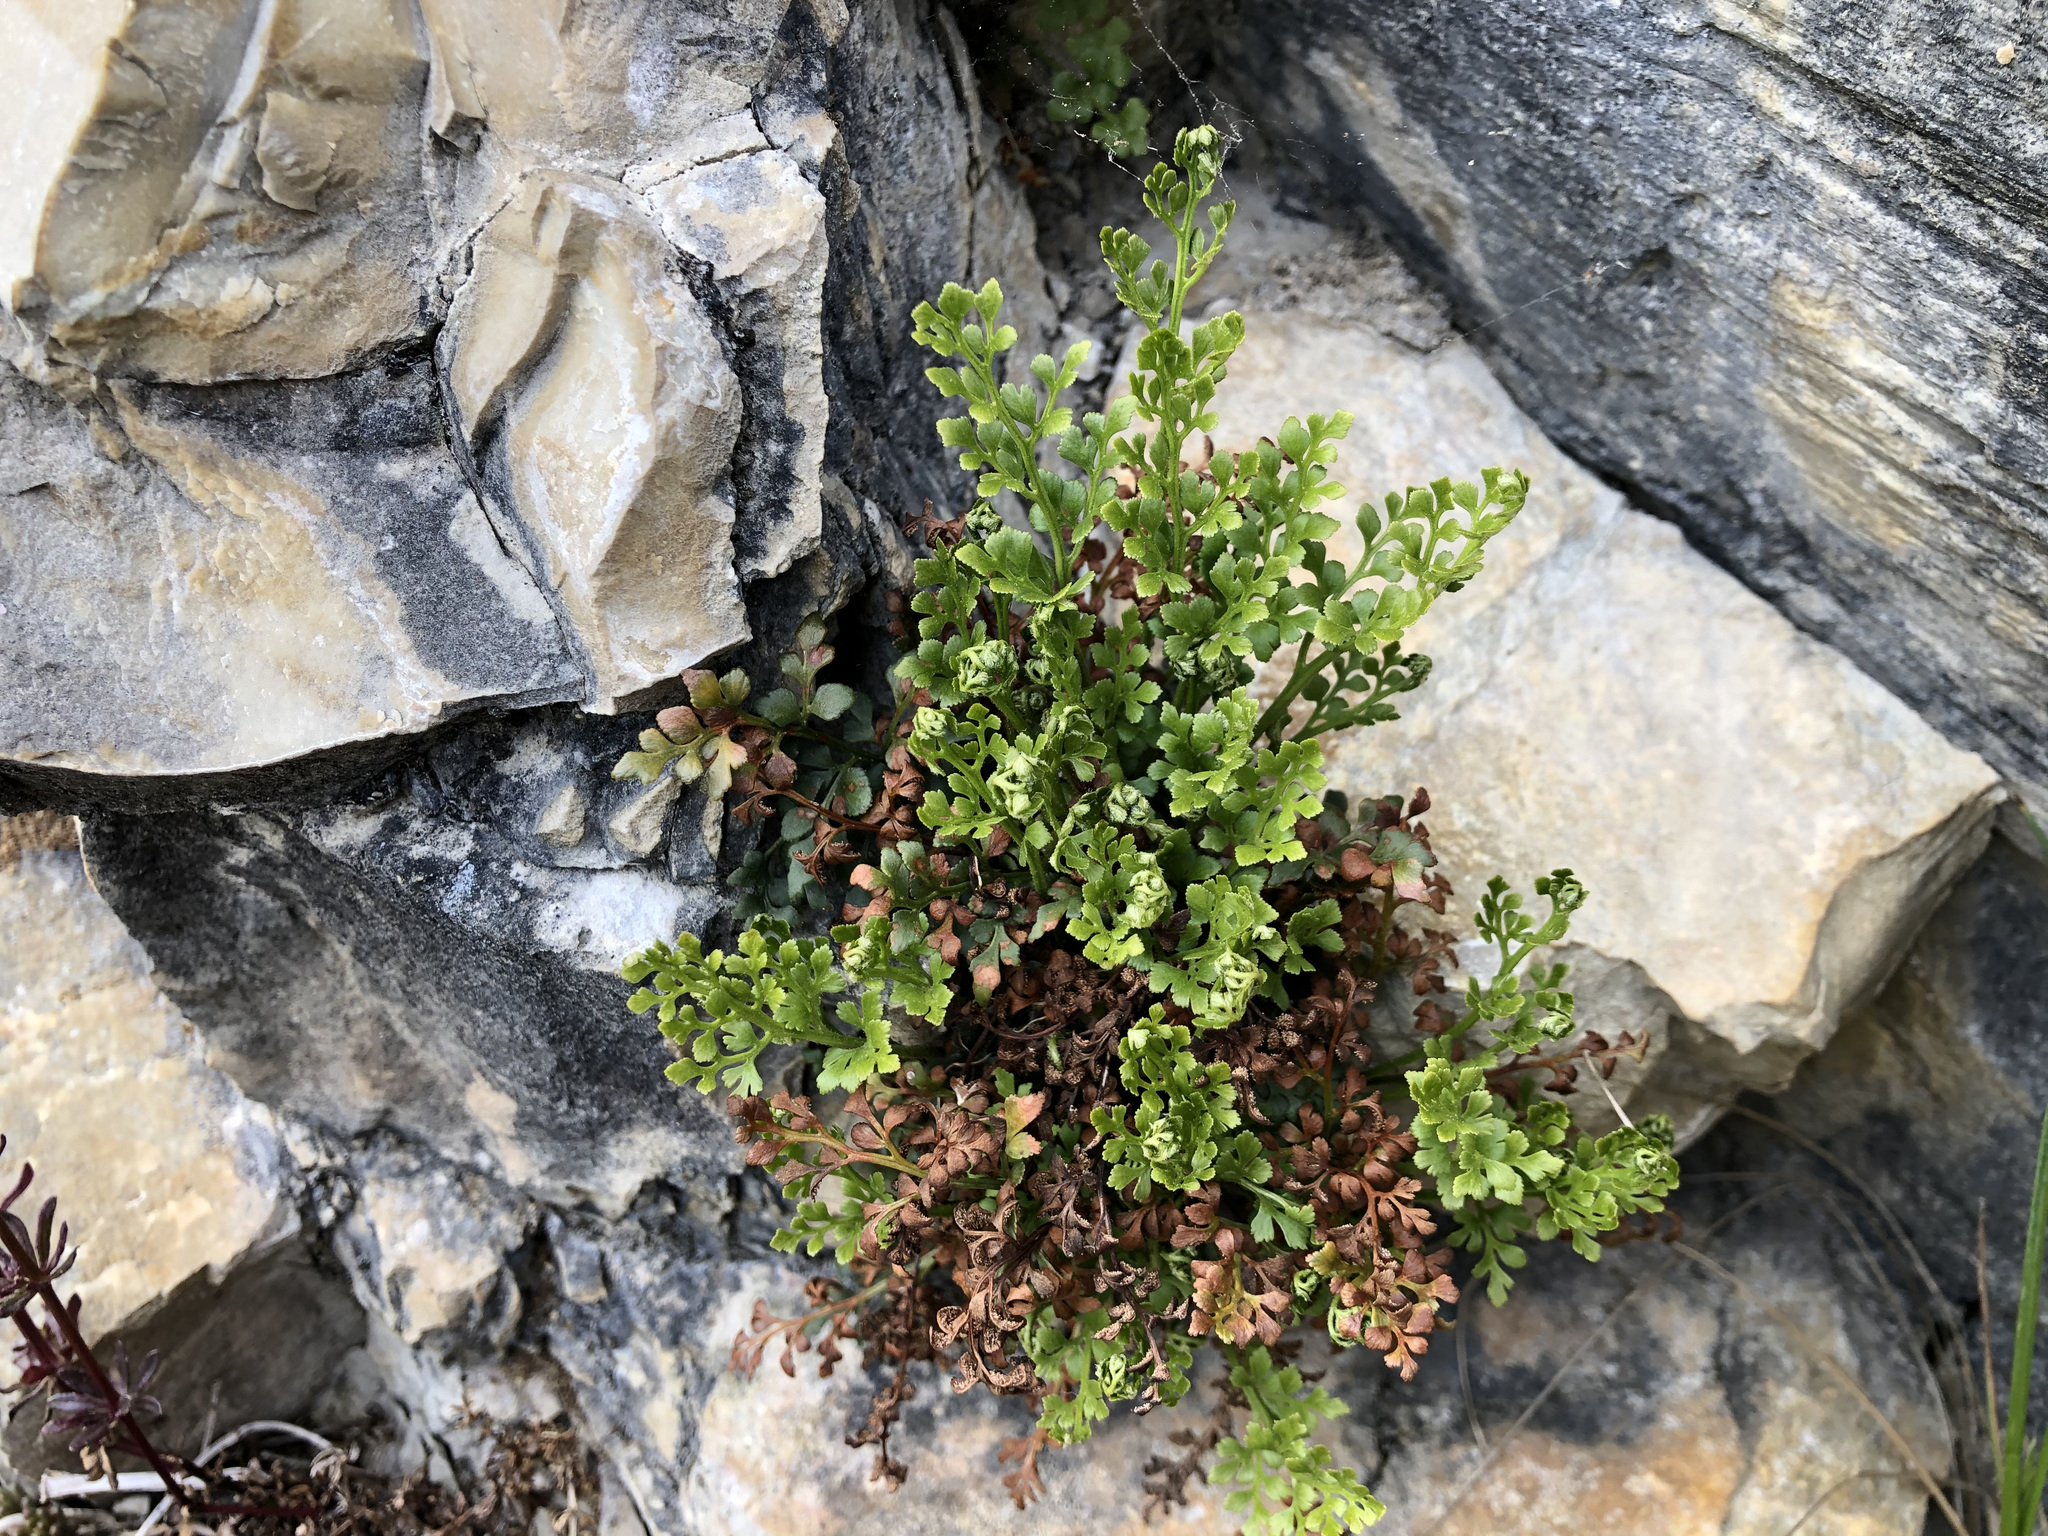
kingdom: Plantae
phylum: Tracheophyta
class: Polypodiopsida
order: Polypodiales
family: Aspleniaceae
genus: Asplenium
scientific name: Asplenium ruta-muraria
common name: Wall-rue
